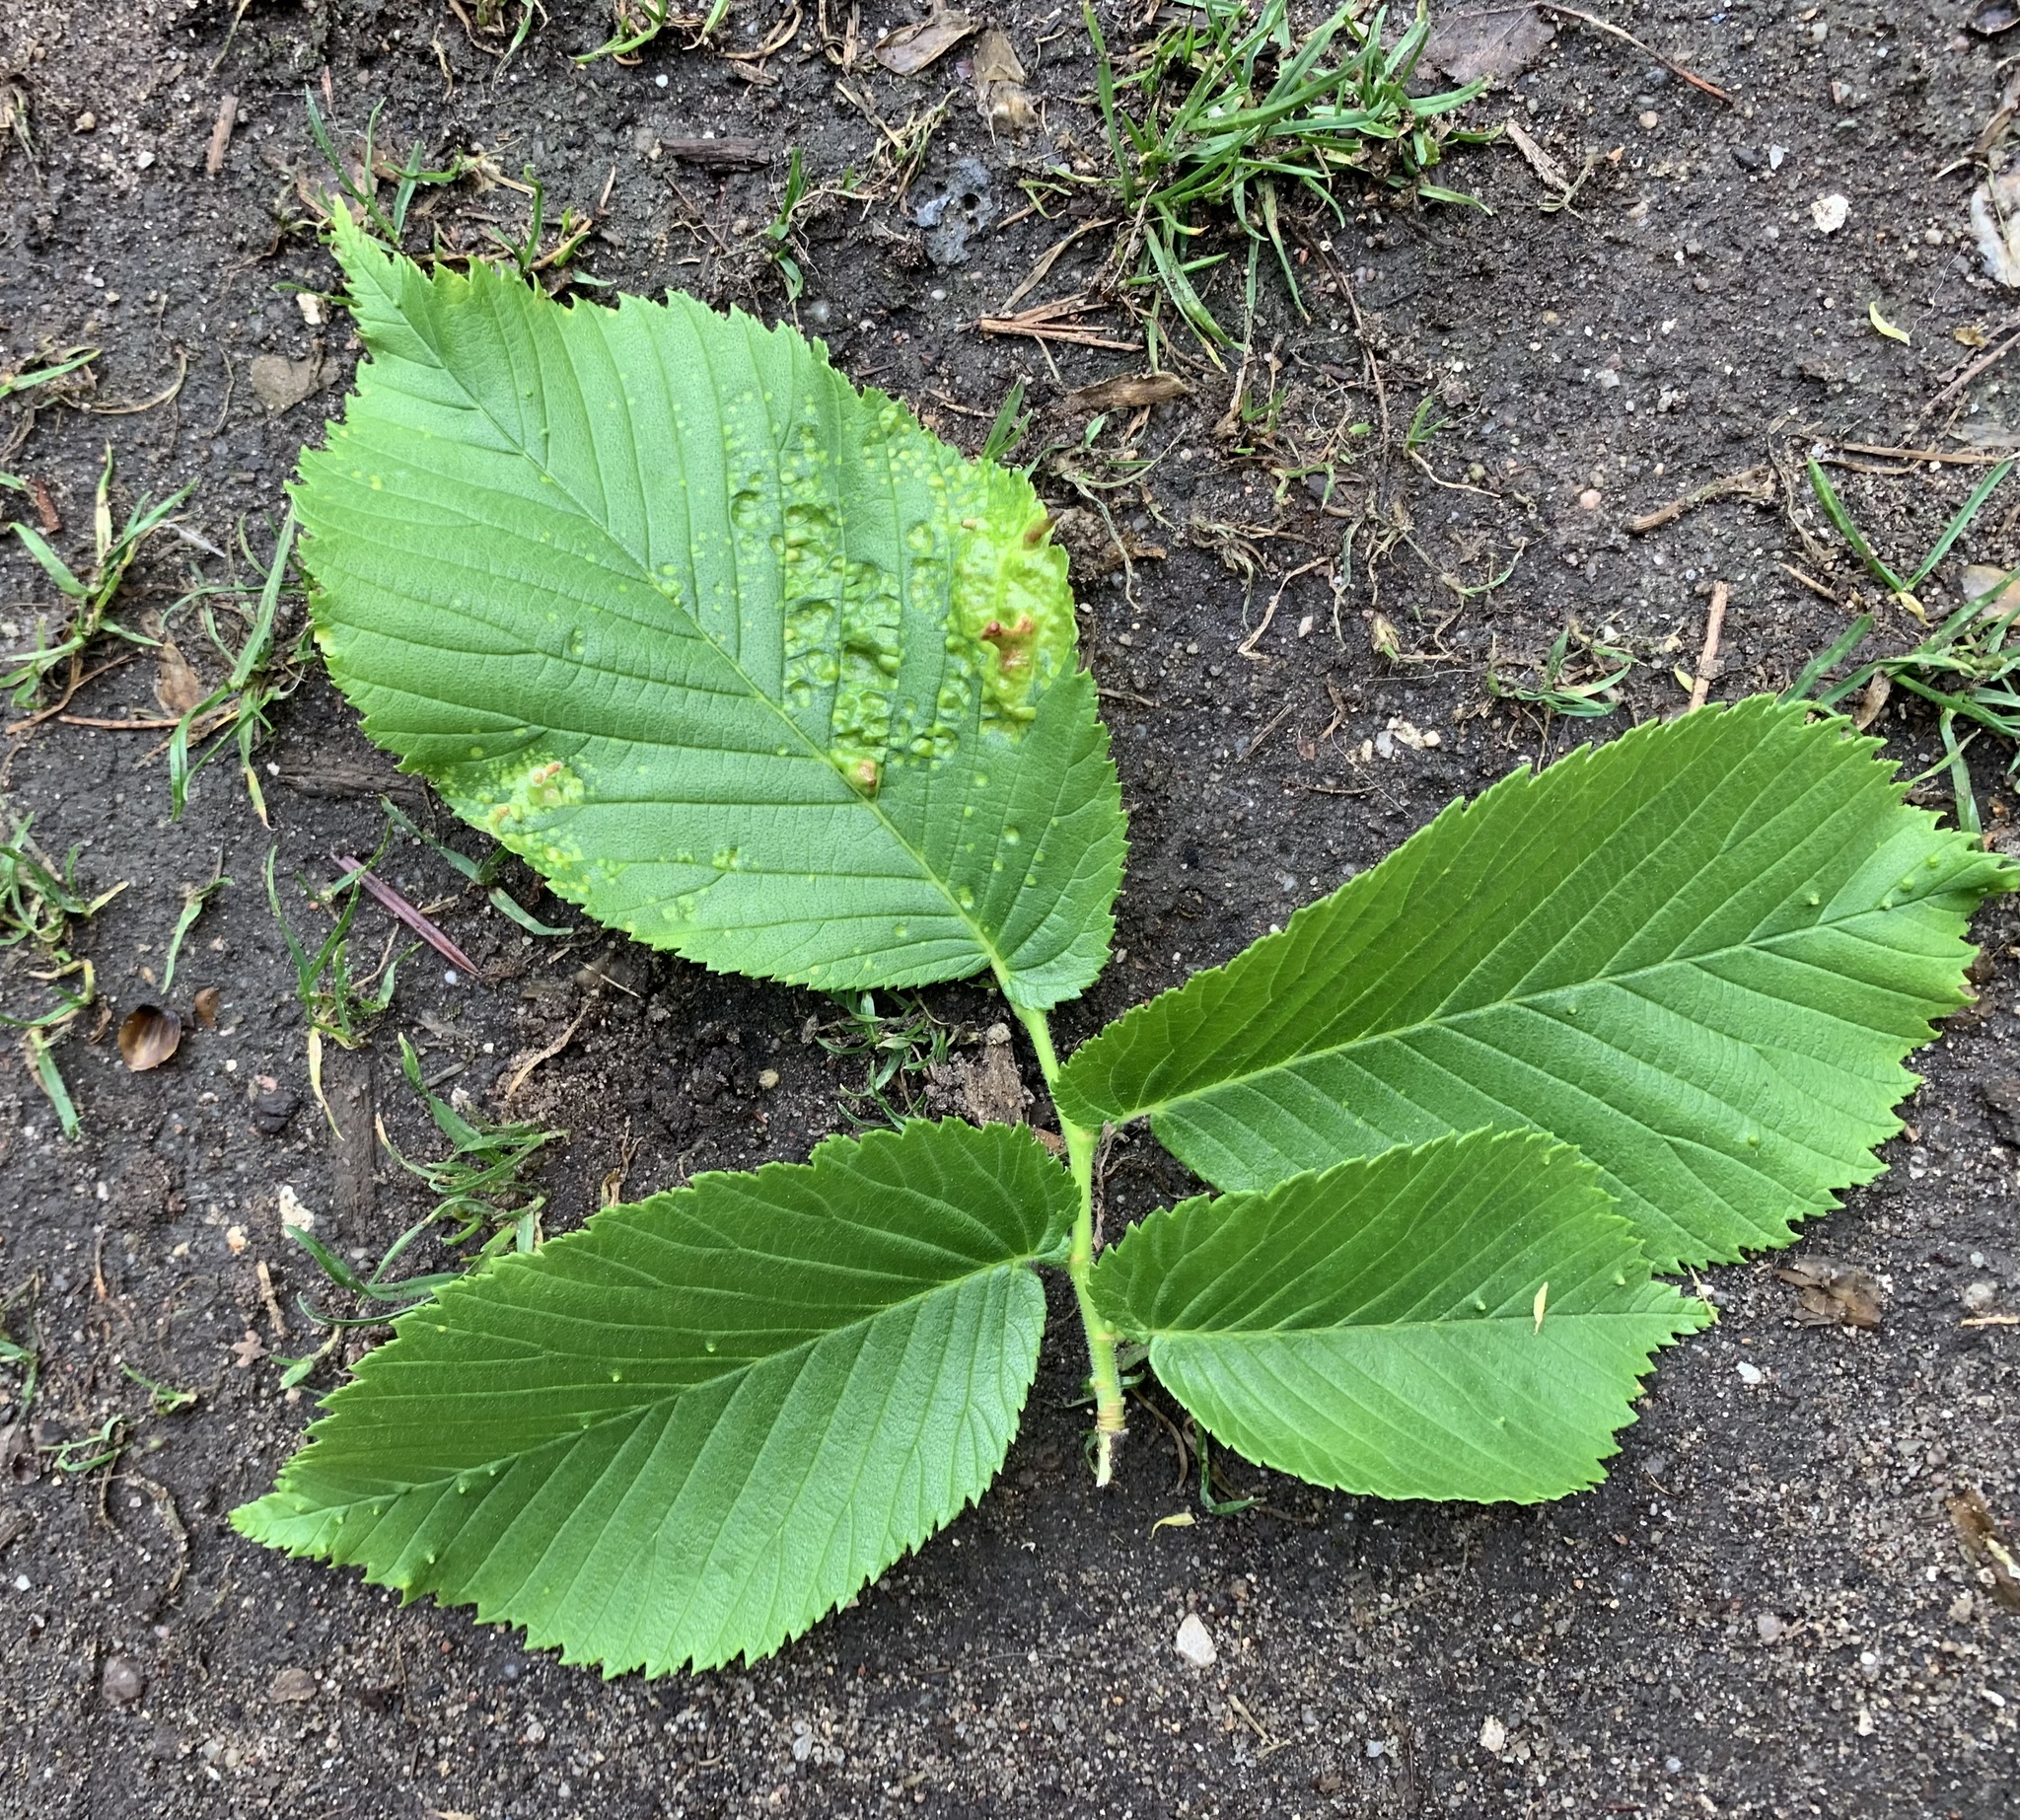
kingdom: Plantae
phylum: Tracheophyta
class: Magnoliopsida
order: Rosales
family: Ulmaceae
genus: Ulmus
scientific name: Ulmus glabra
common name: Wych elm
